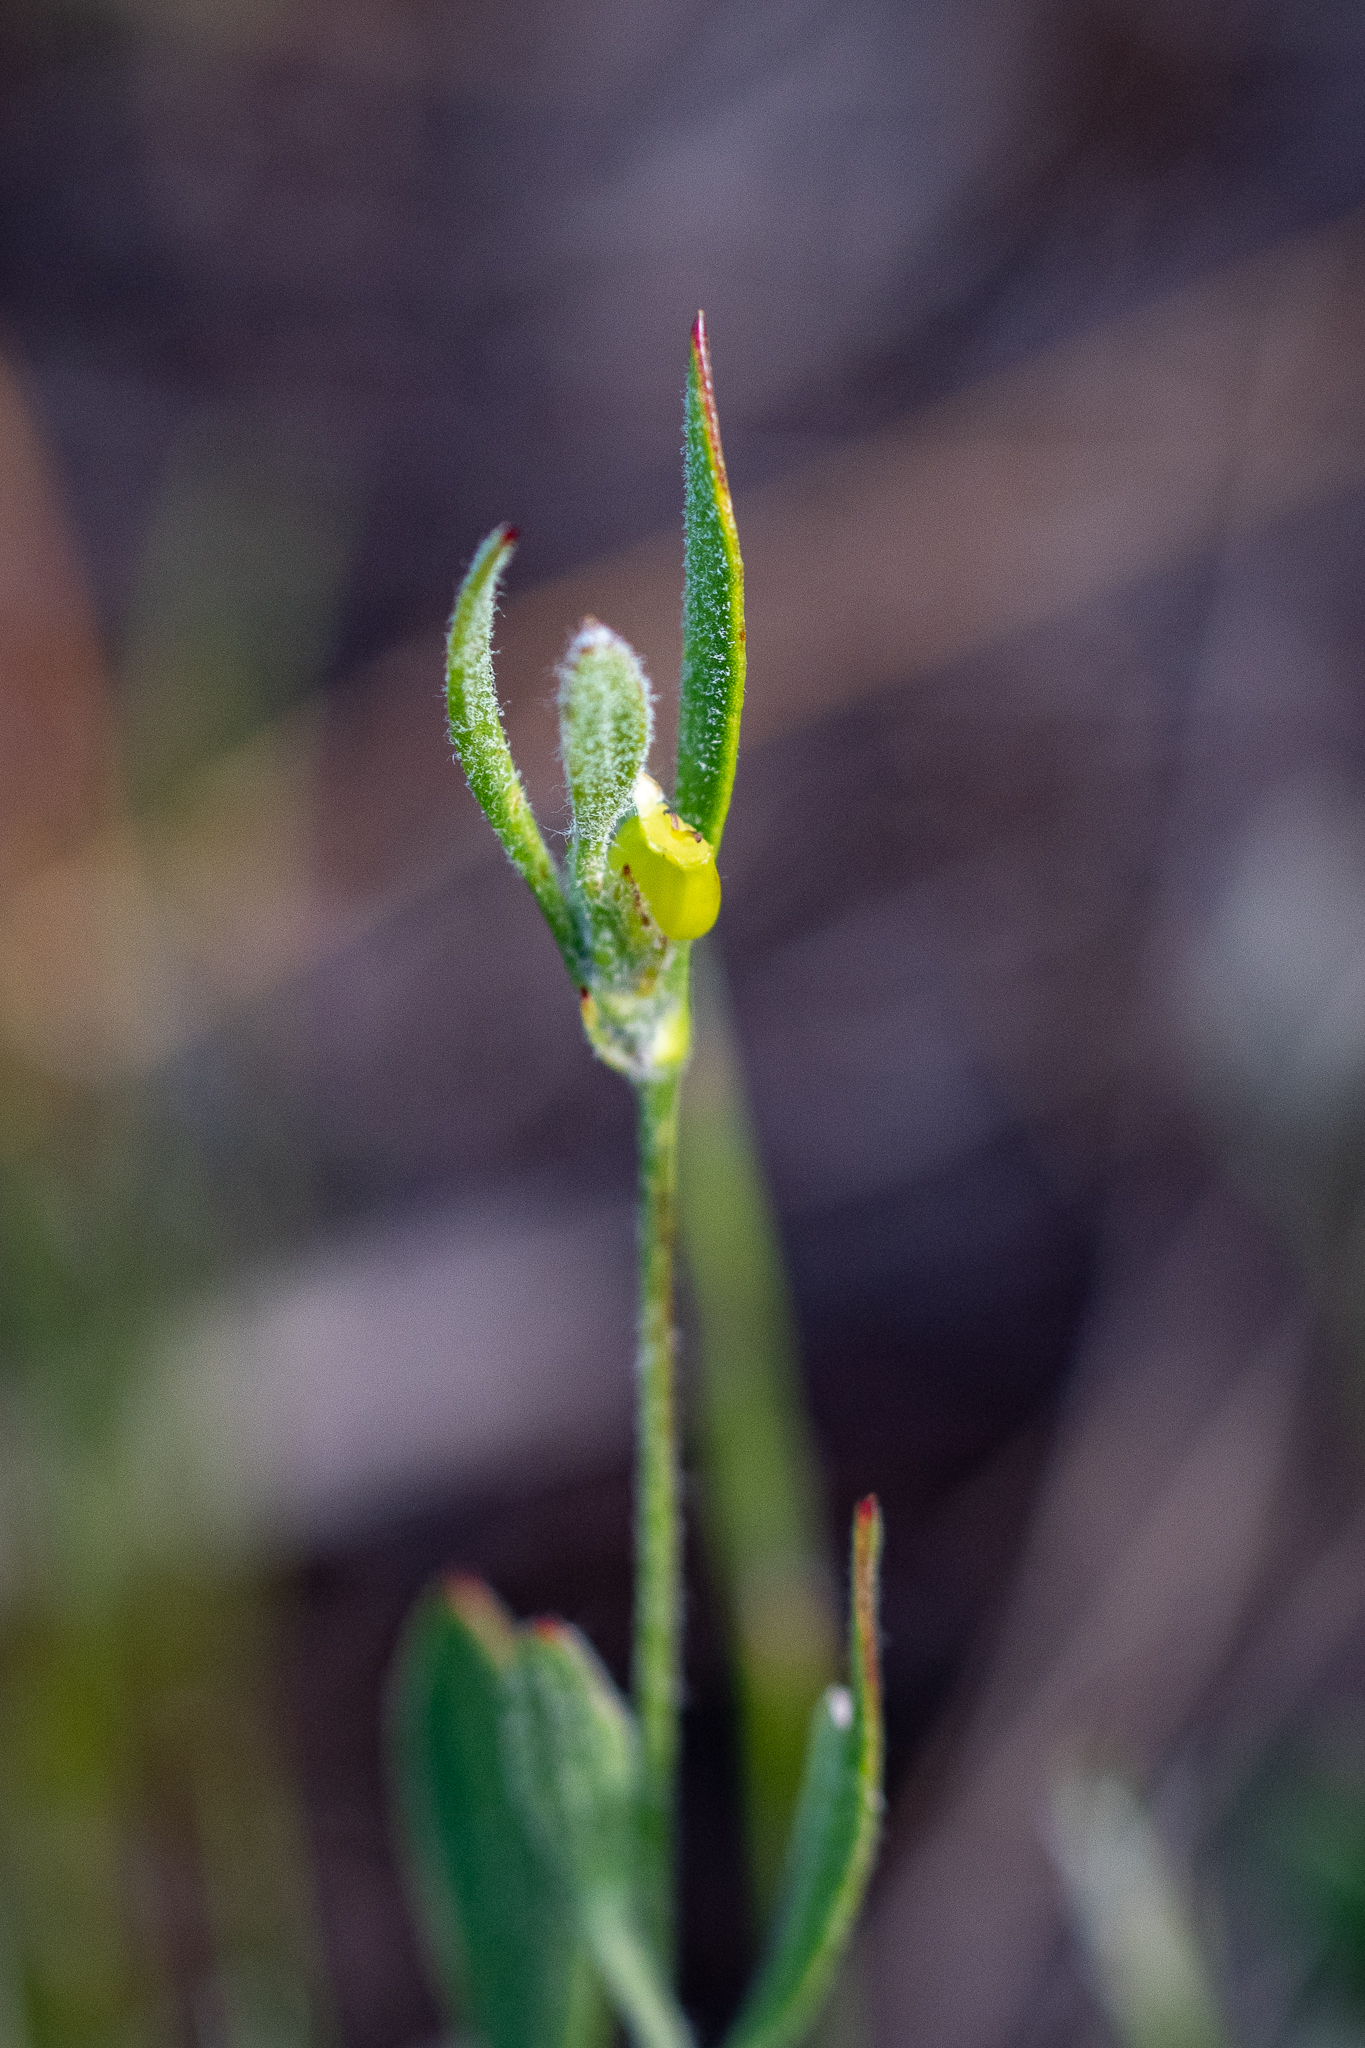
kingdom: Plantae
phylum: Tracheophyta
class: Magnoliopsida
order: Apiales
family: Apiaceae
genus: Centella
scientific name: Centella difformis
